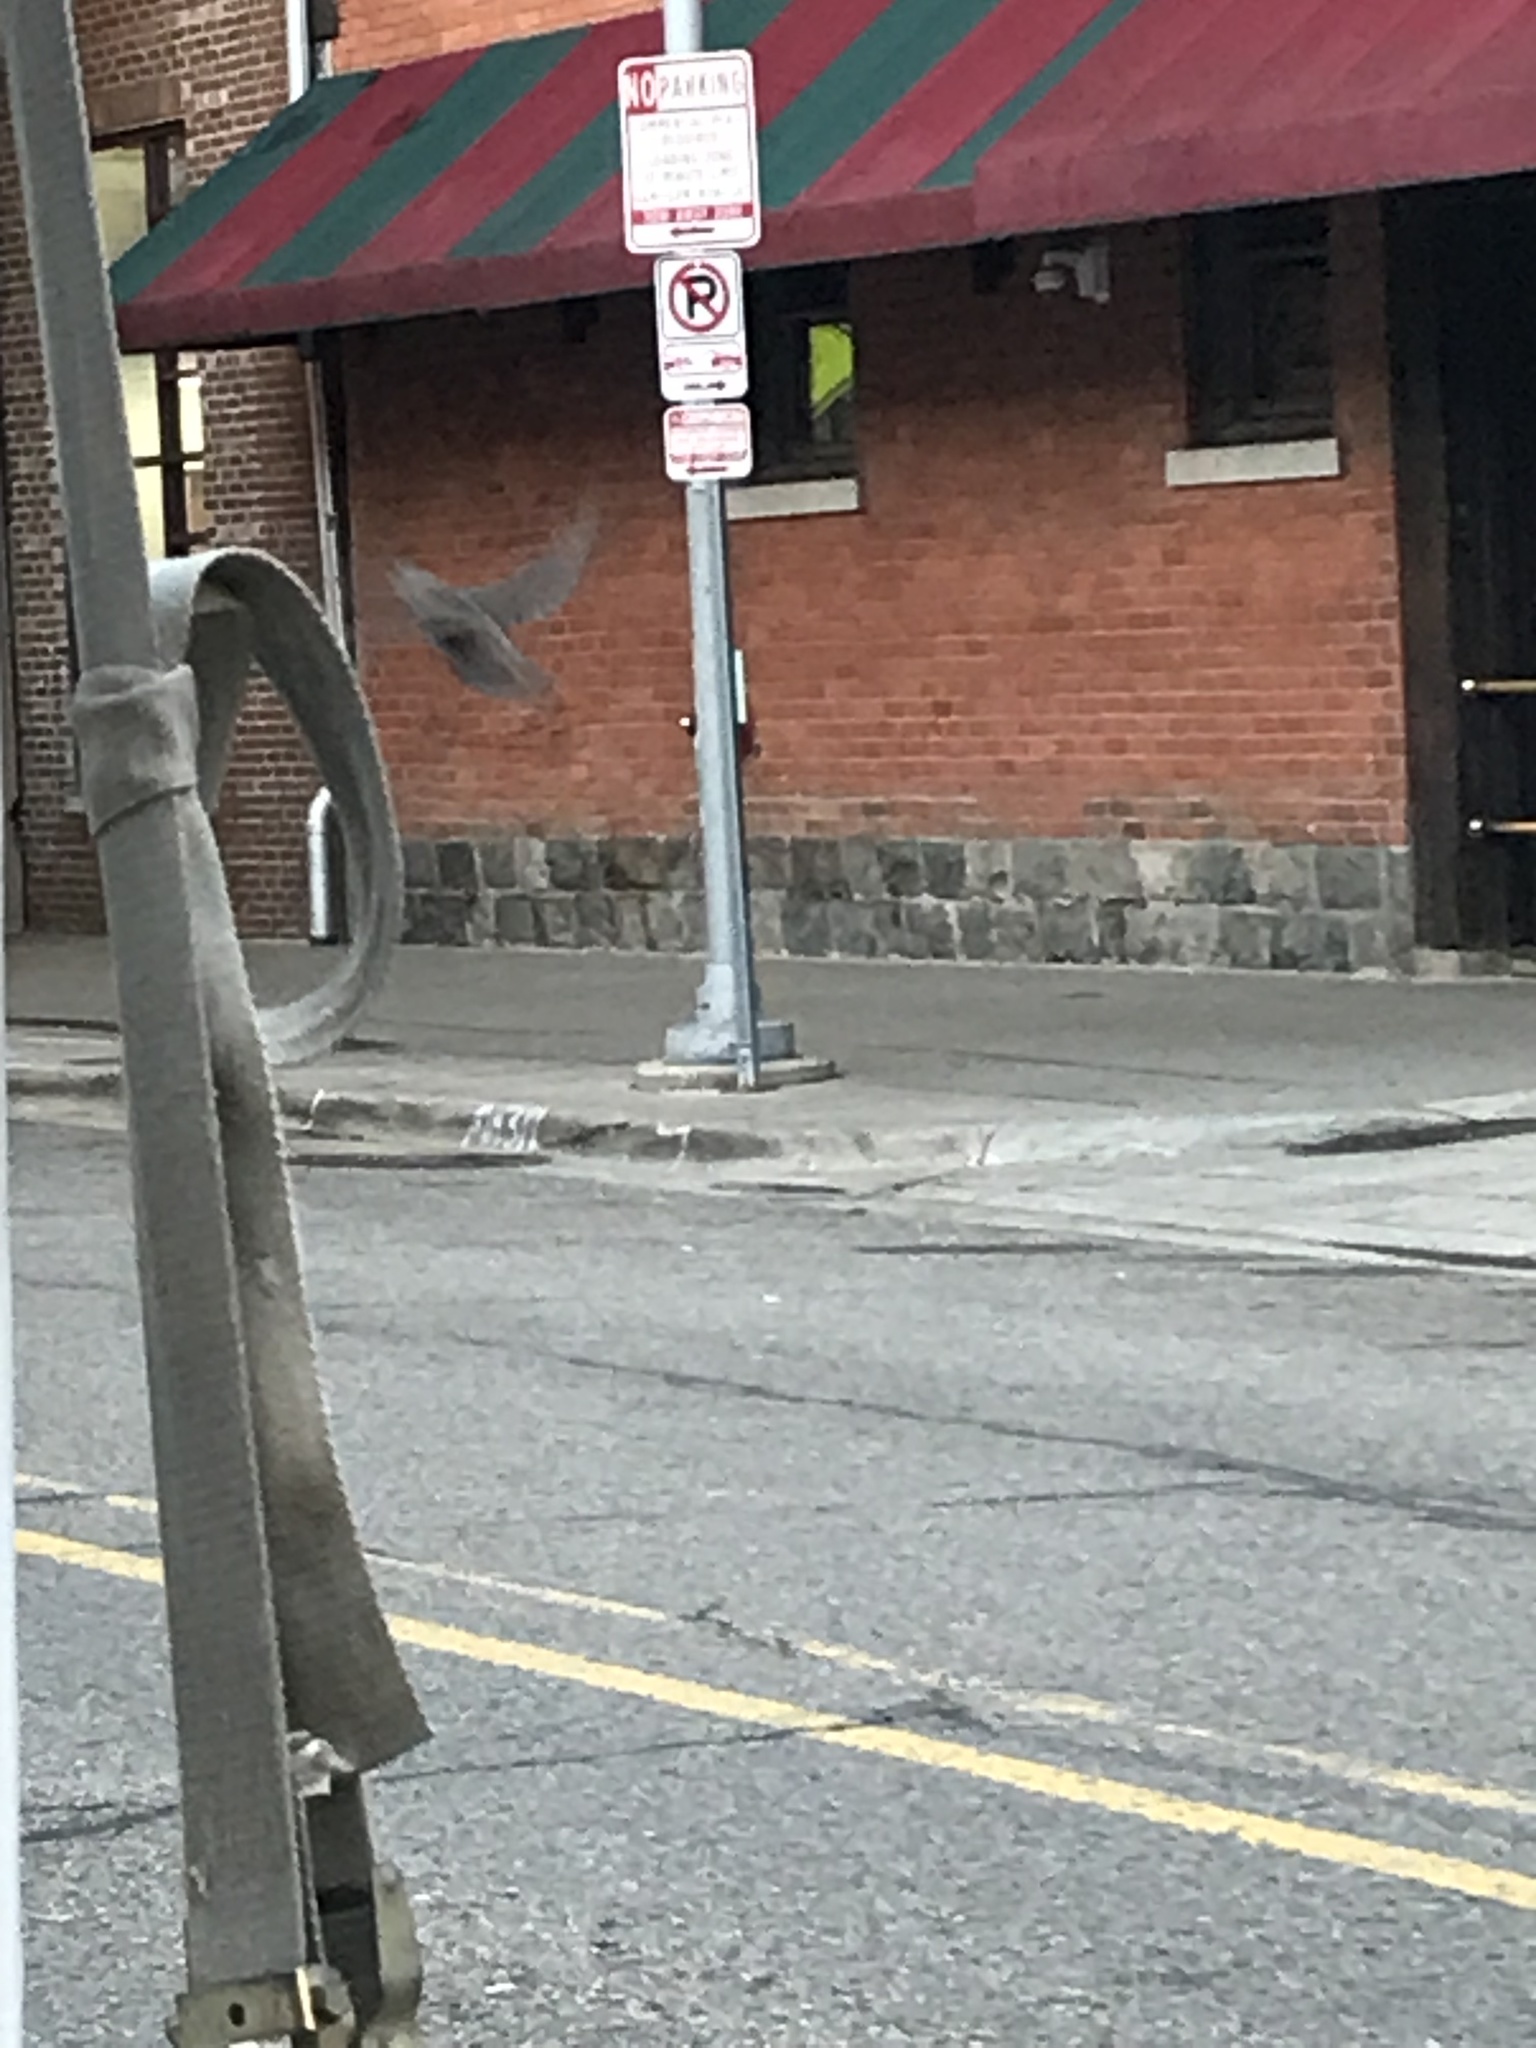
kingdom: Animalia
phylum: Chordata
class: Aves
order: Passeriformes
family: Sturnidae
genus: Sturnus
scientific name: Sturnus vulgaris
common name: Common starling
